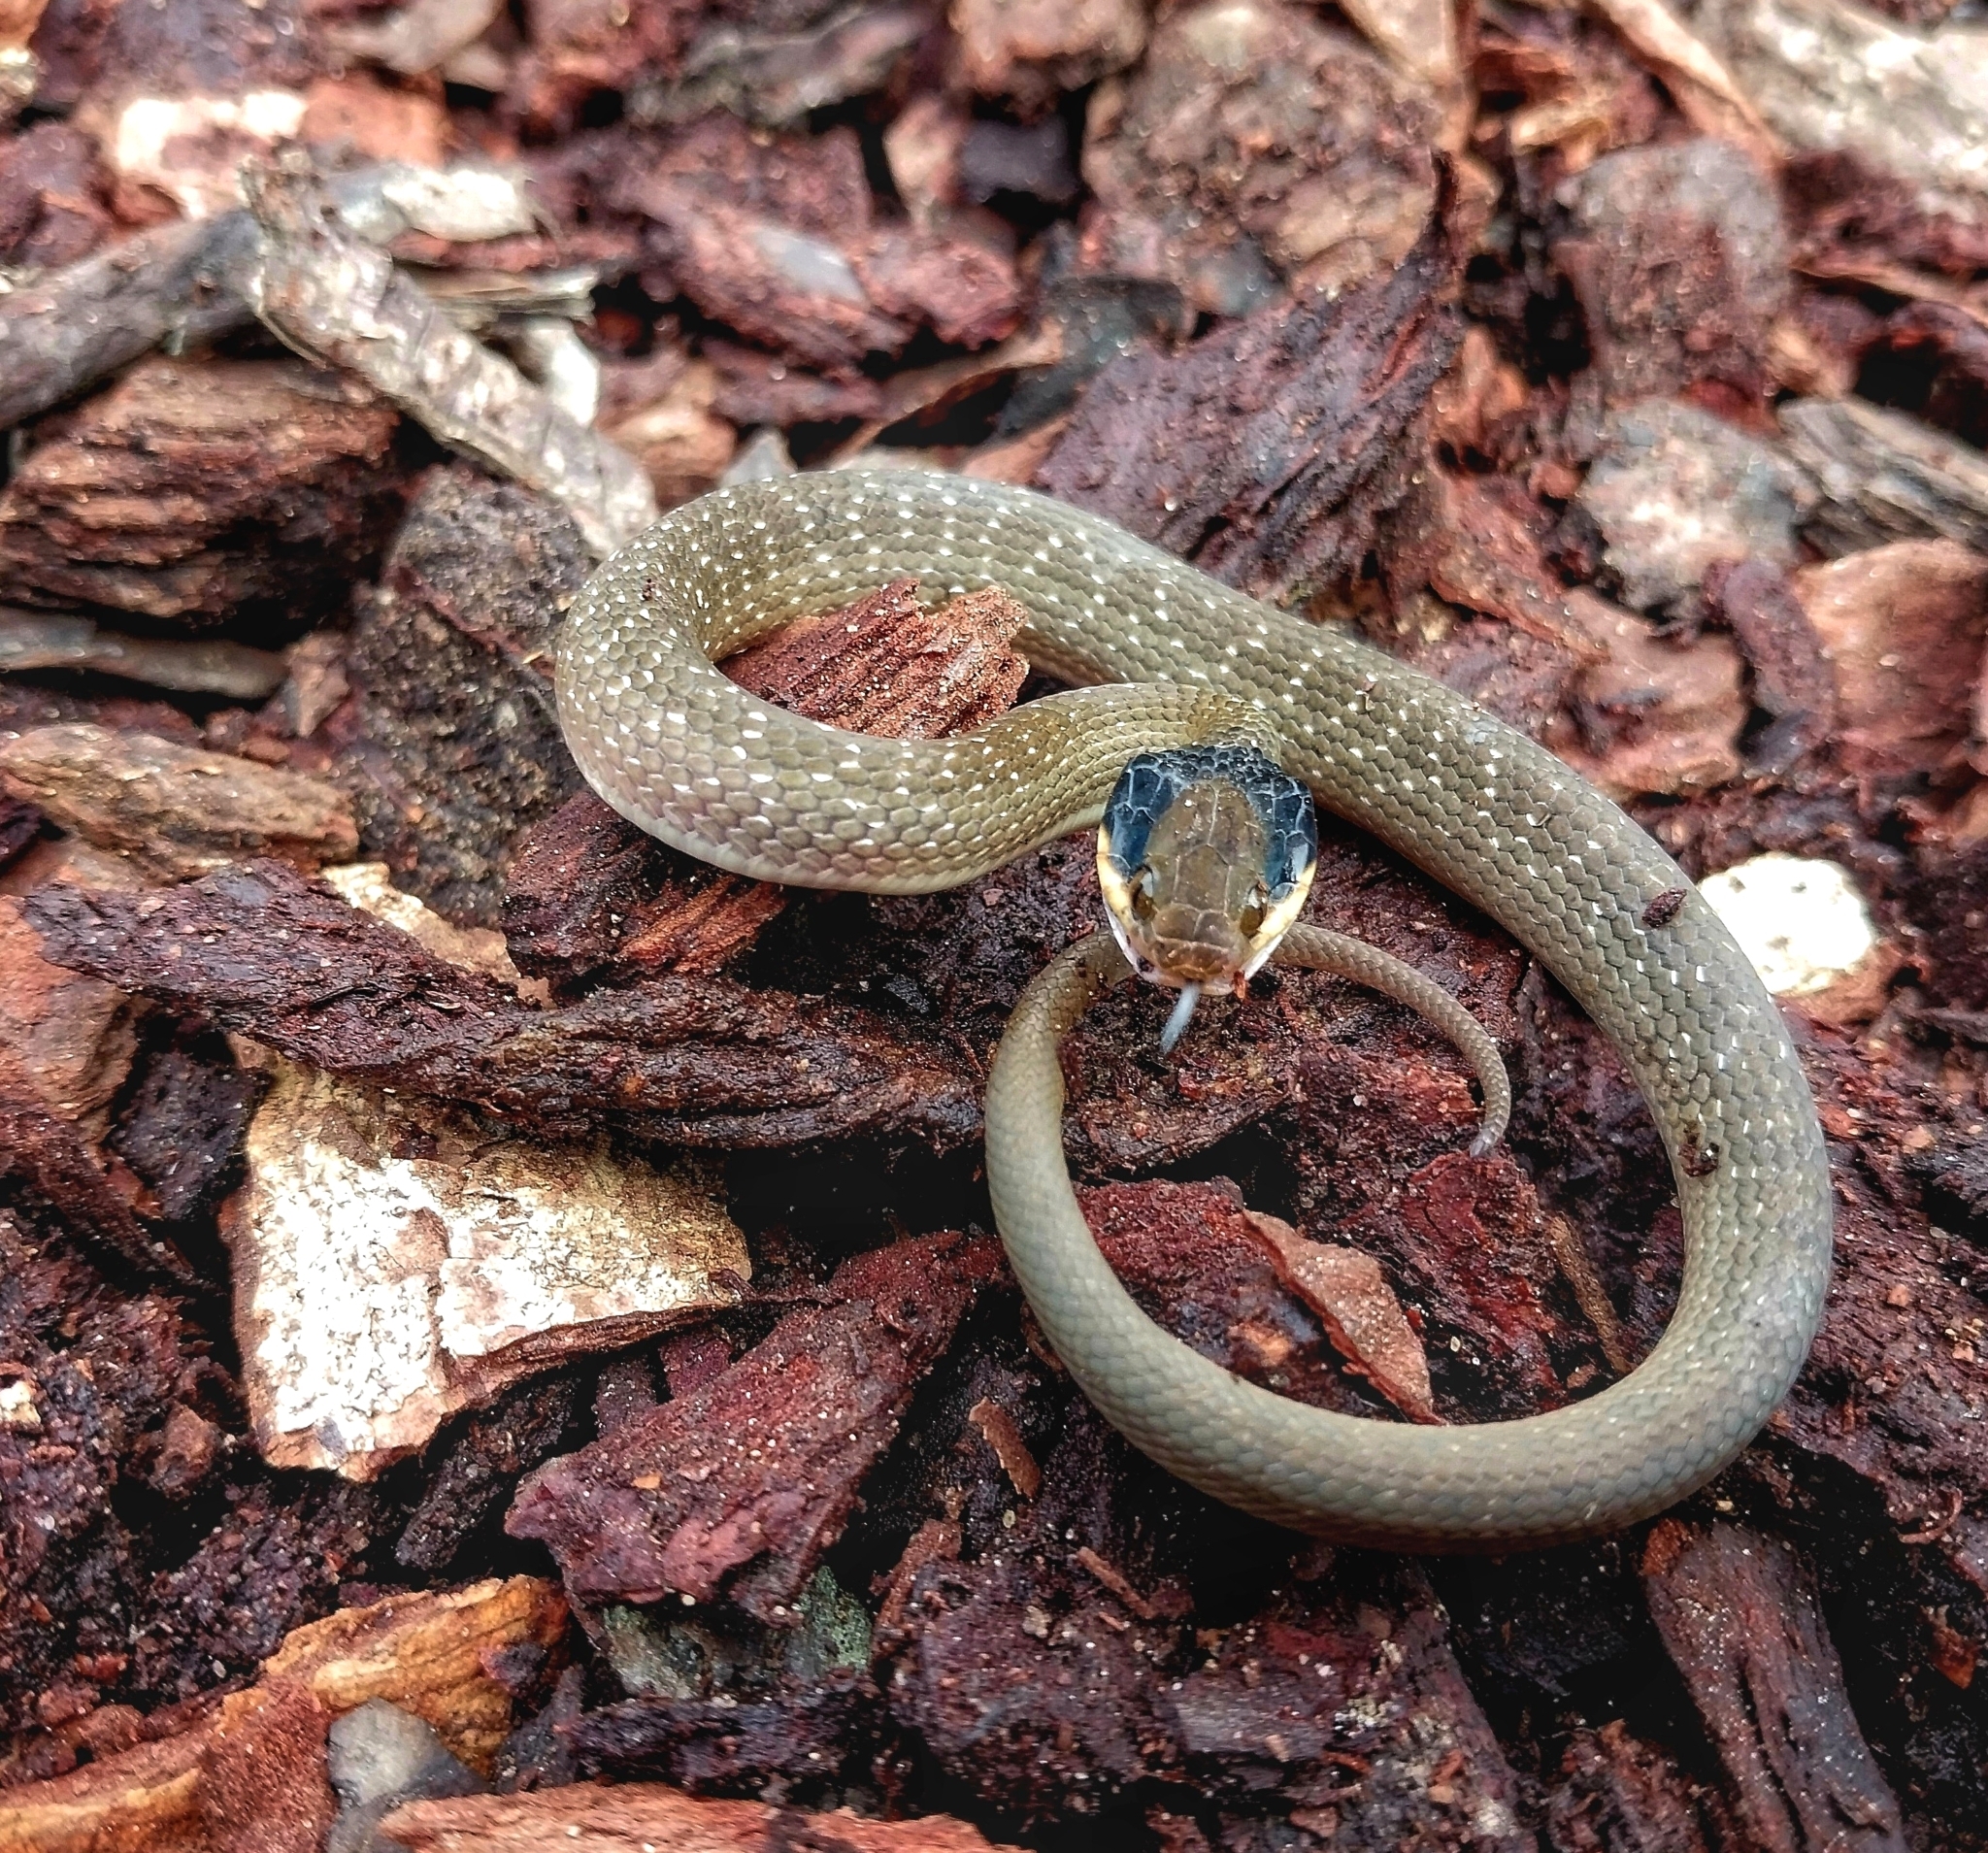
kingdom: Animalia
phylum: Chordata
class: Squamata
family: Colubridae
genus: Crotaphopeltis
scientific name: Crotaphopeltis hotamboeia
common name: Red-lipped snake
